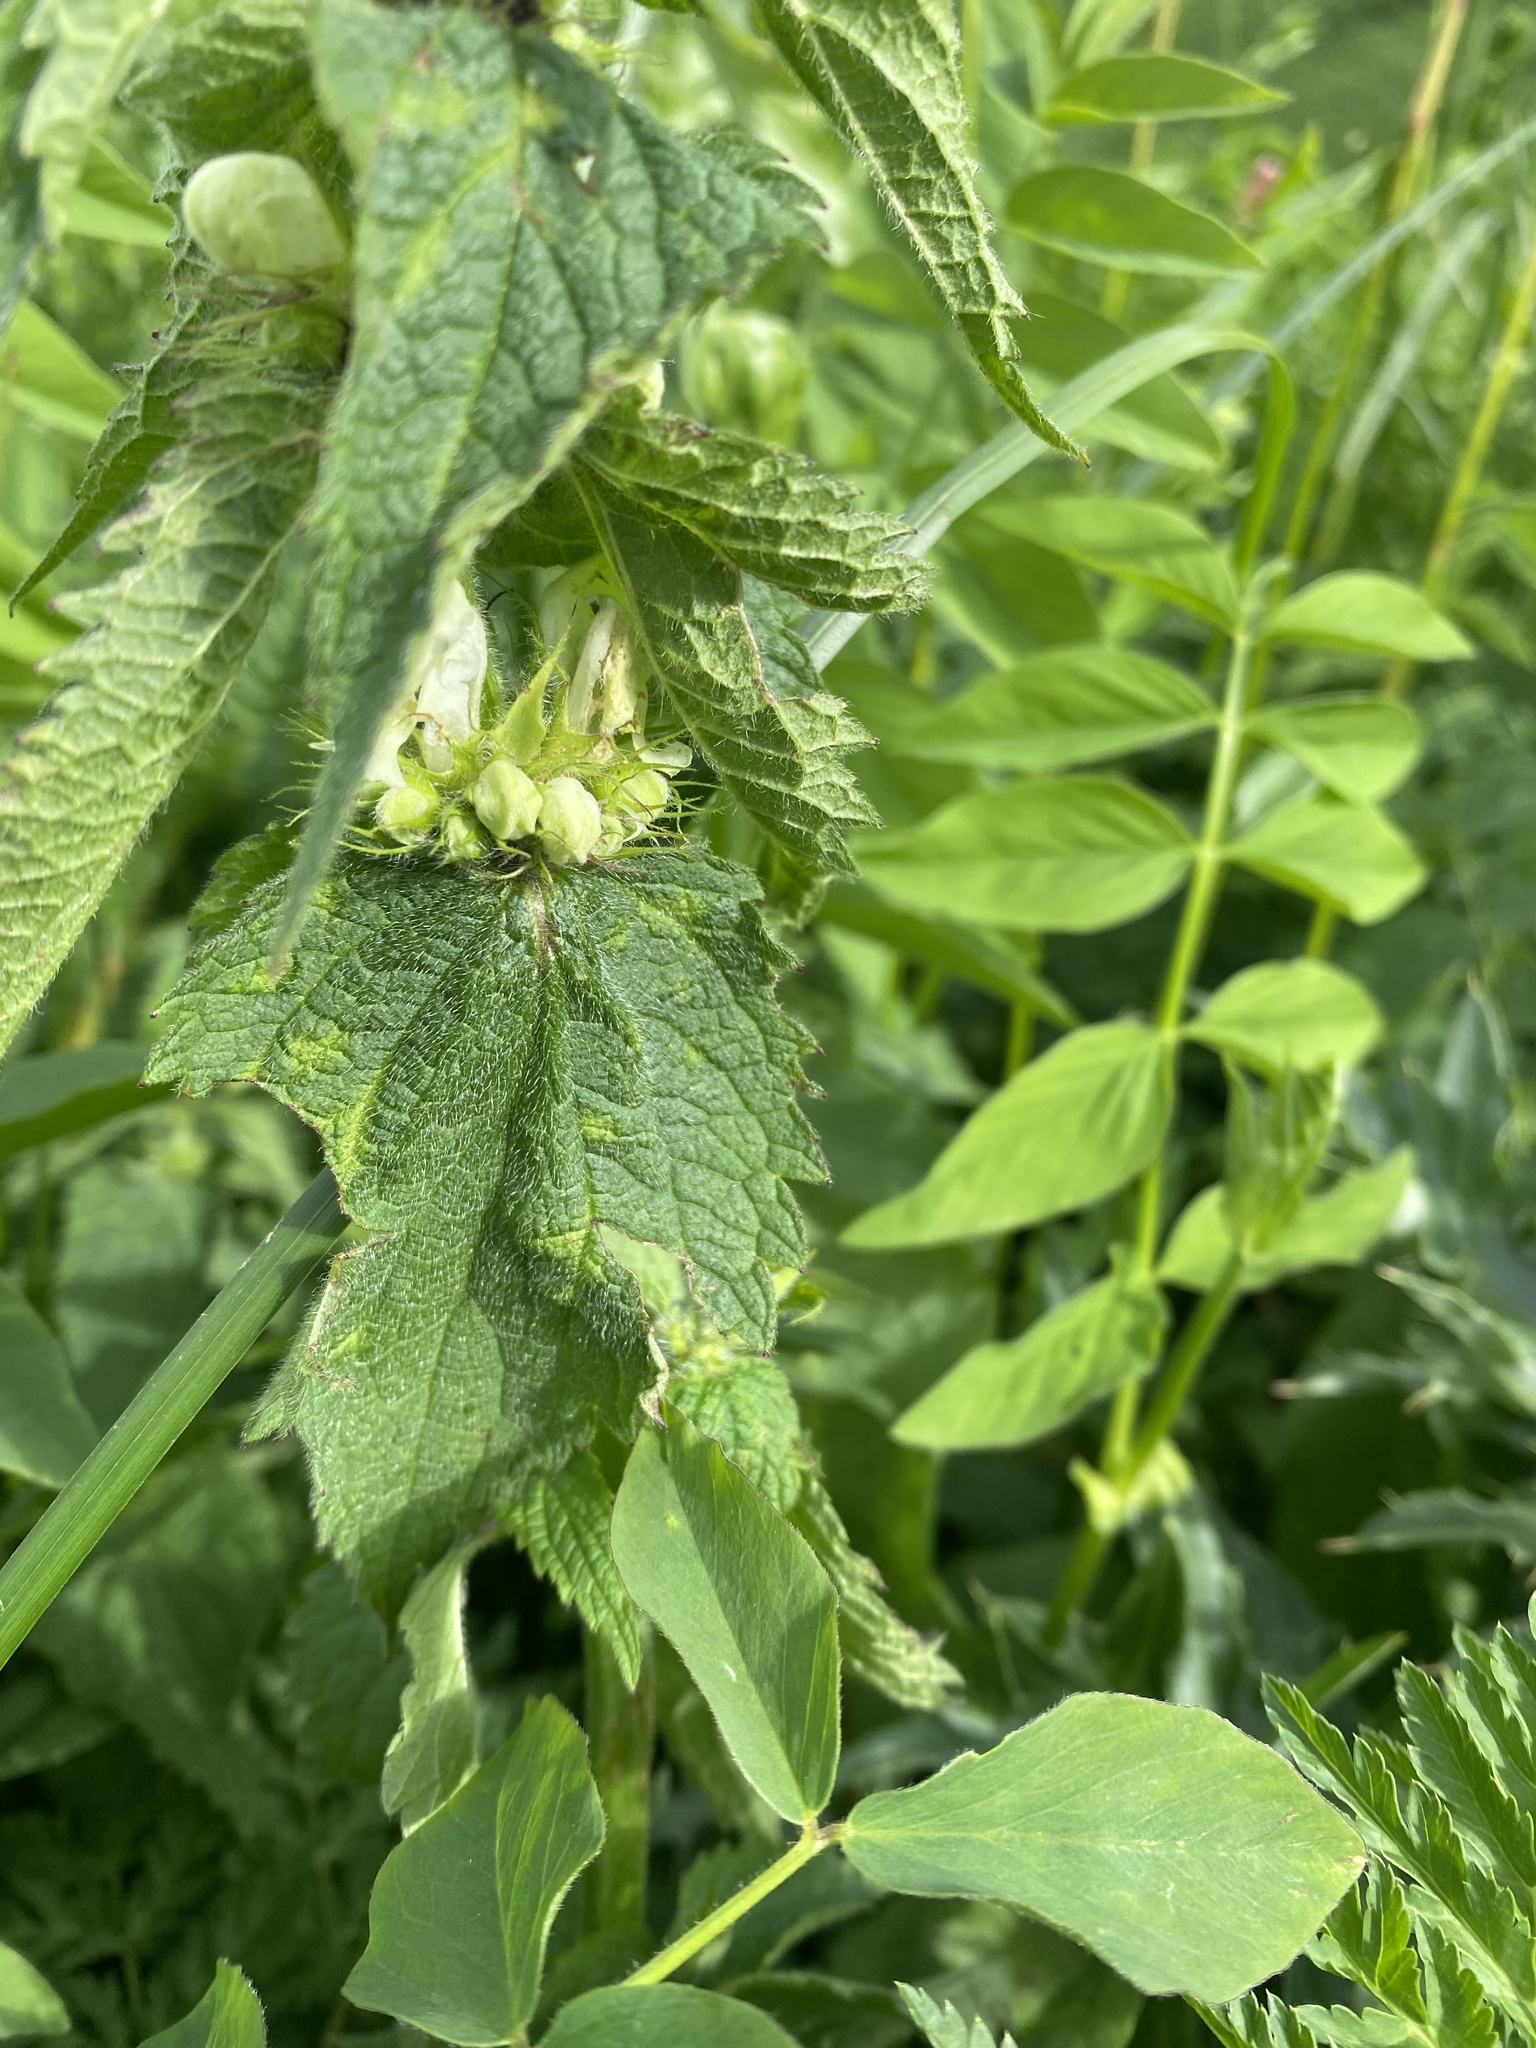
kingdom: Plantae
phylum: Tracheophyta
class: Magnoliopsida
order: Lamiales
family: Lamiaceae
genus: Lamium
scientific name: Lamium album
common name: White dead-nettle
